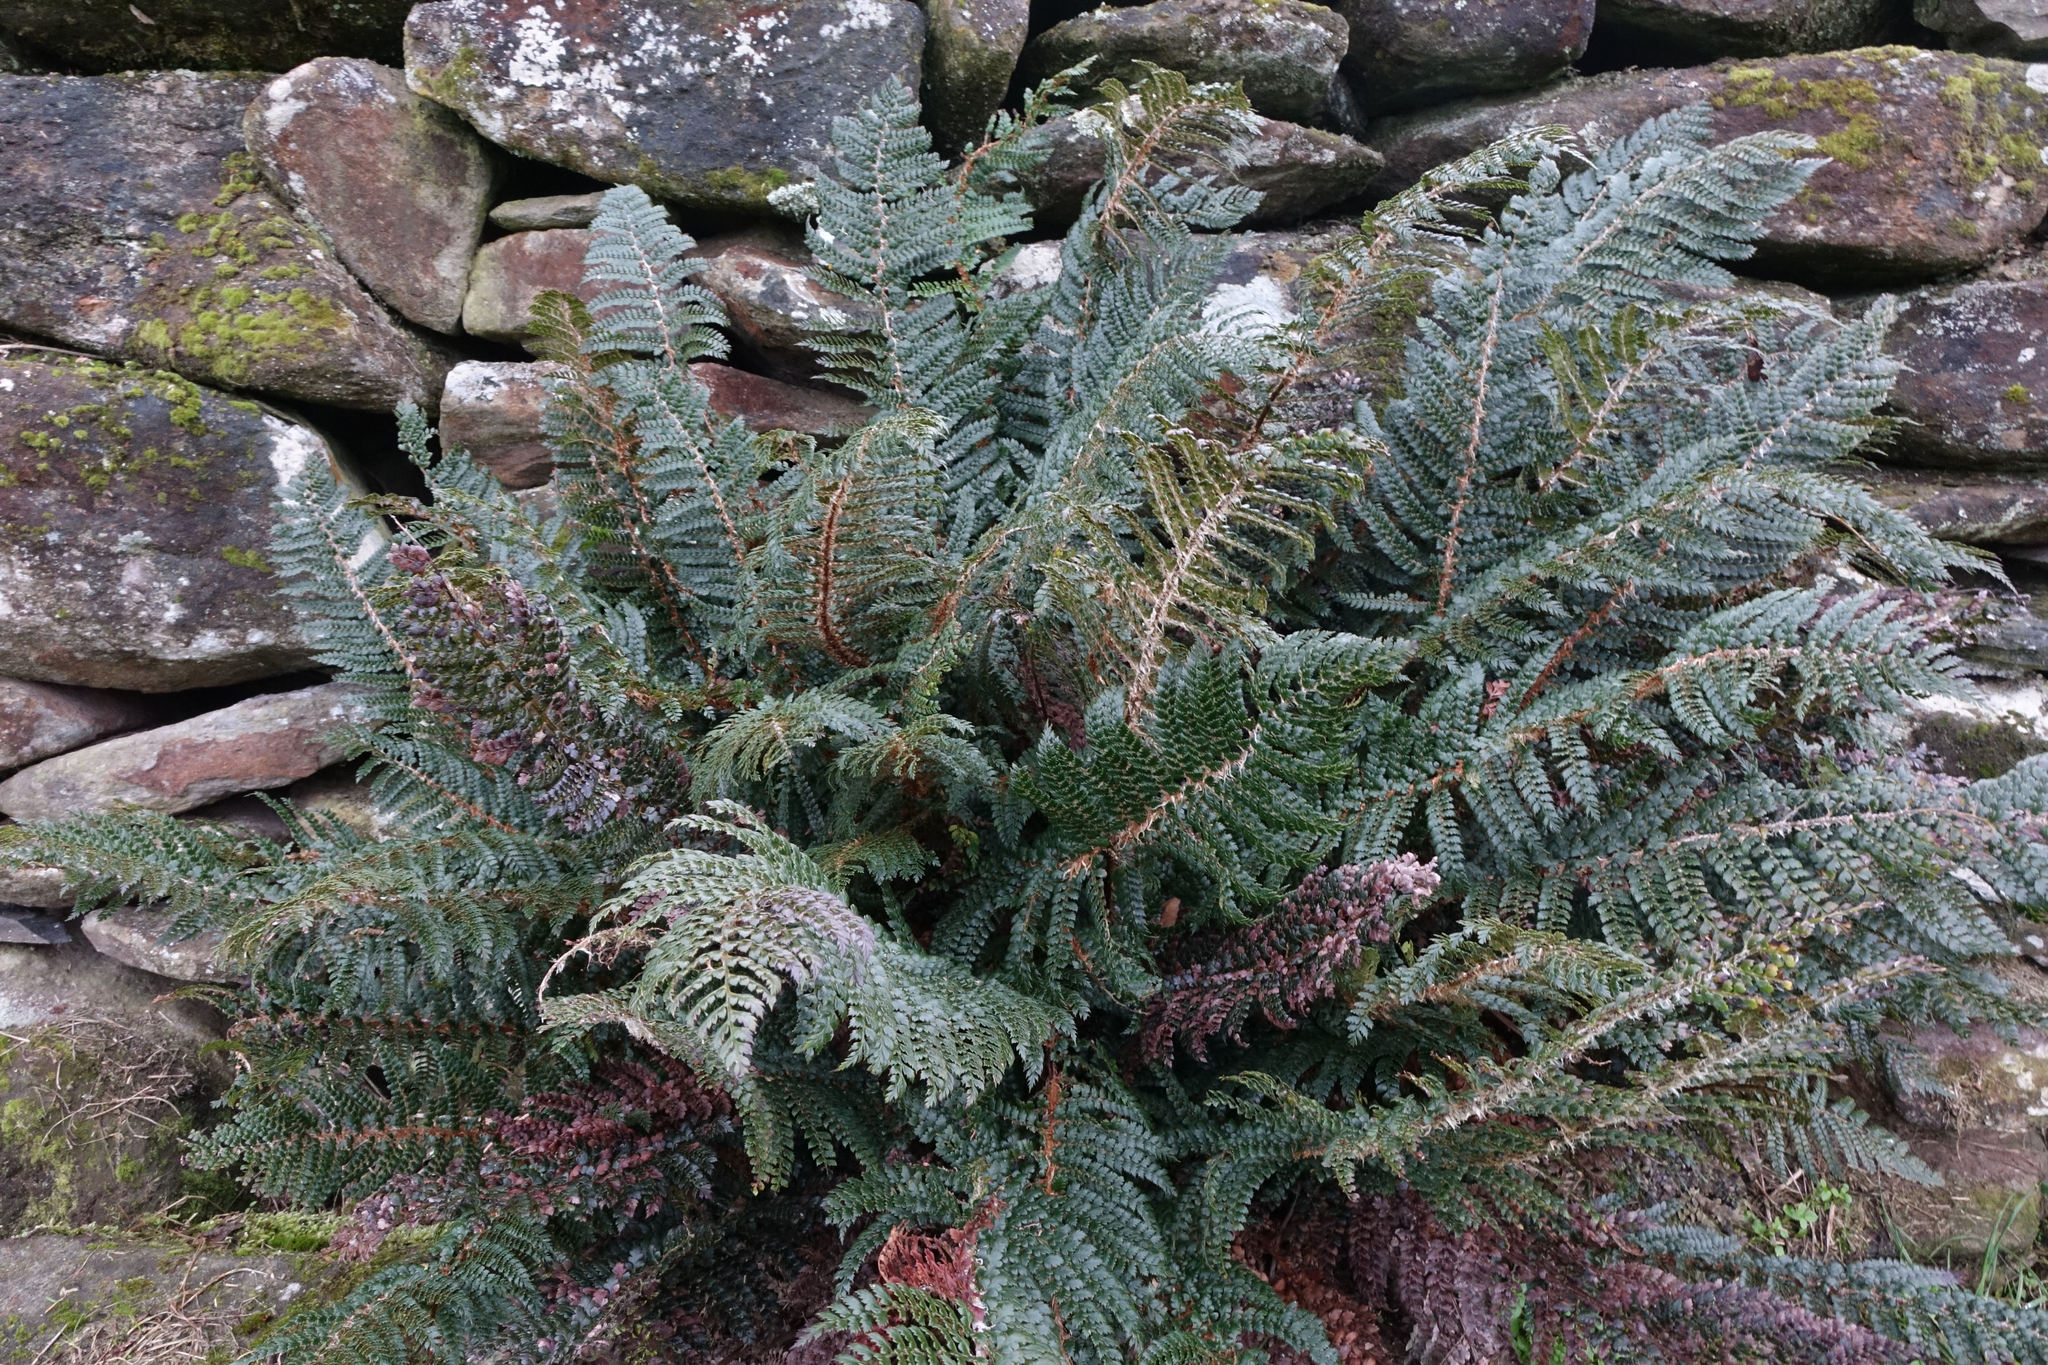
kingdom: Plantae
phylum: Tracheophyta
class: Polypodiopsida
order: Polypodiales
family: Dryopteridaceae
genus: Polystichum
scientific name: Polystichum vestitum
